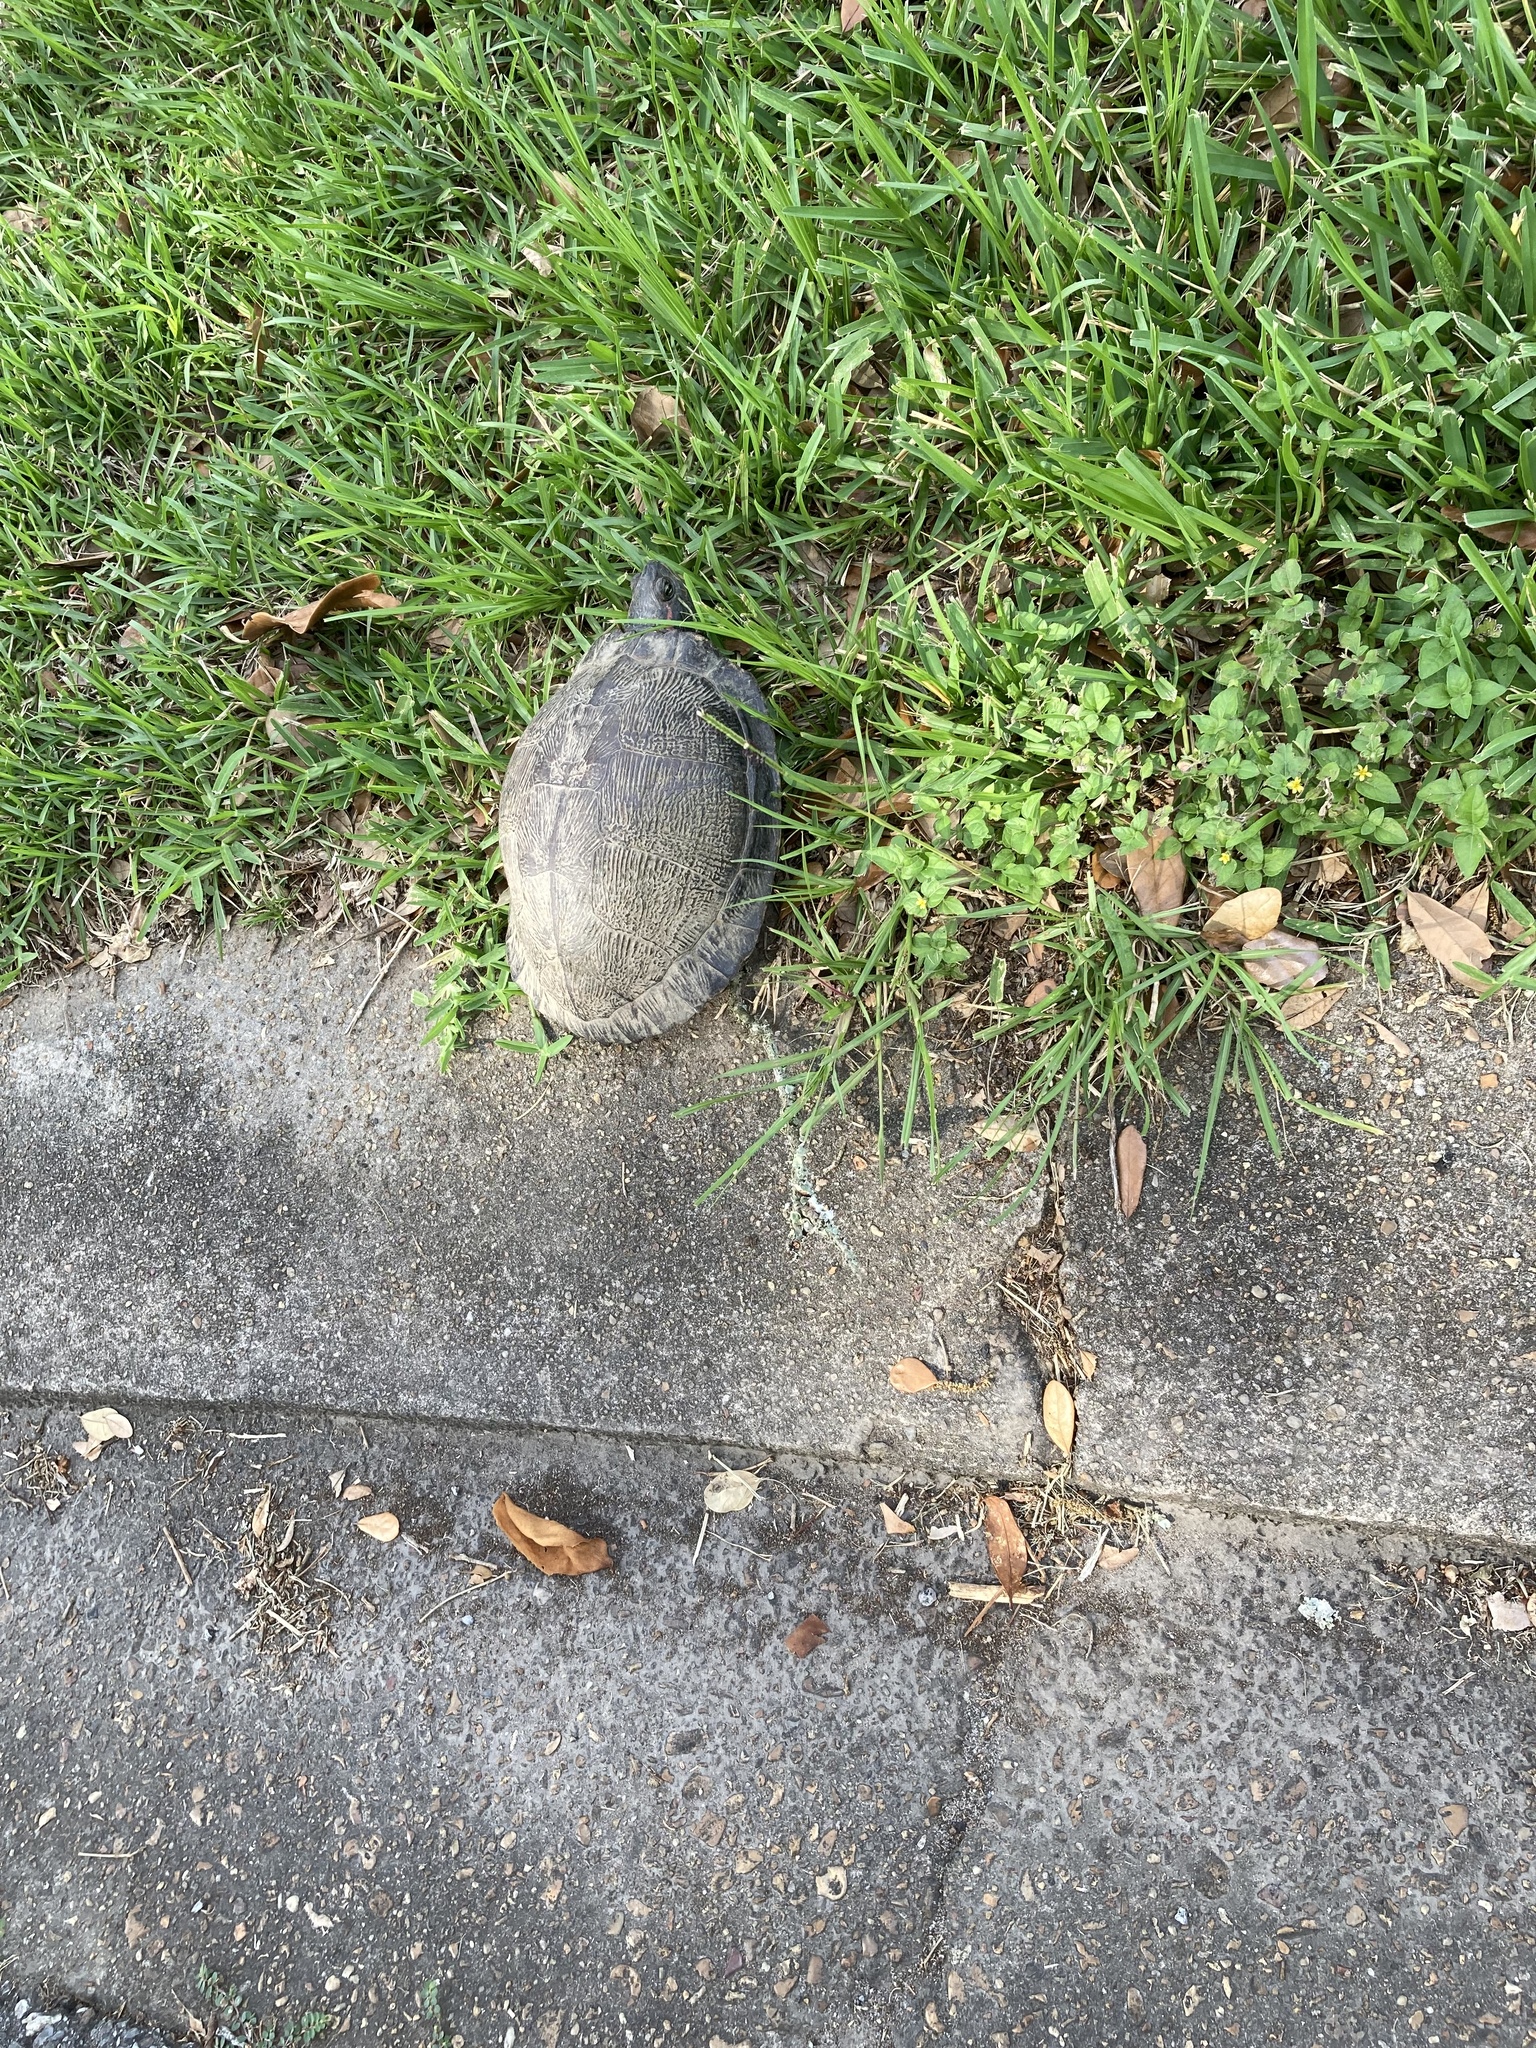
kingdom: Animalia
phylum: Chordata
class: Testudines
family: Emydidae
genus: Trachemys
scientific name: Trachemys scripta
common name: Slider
